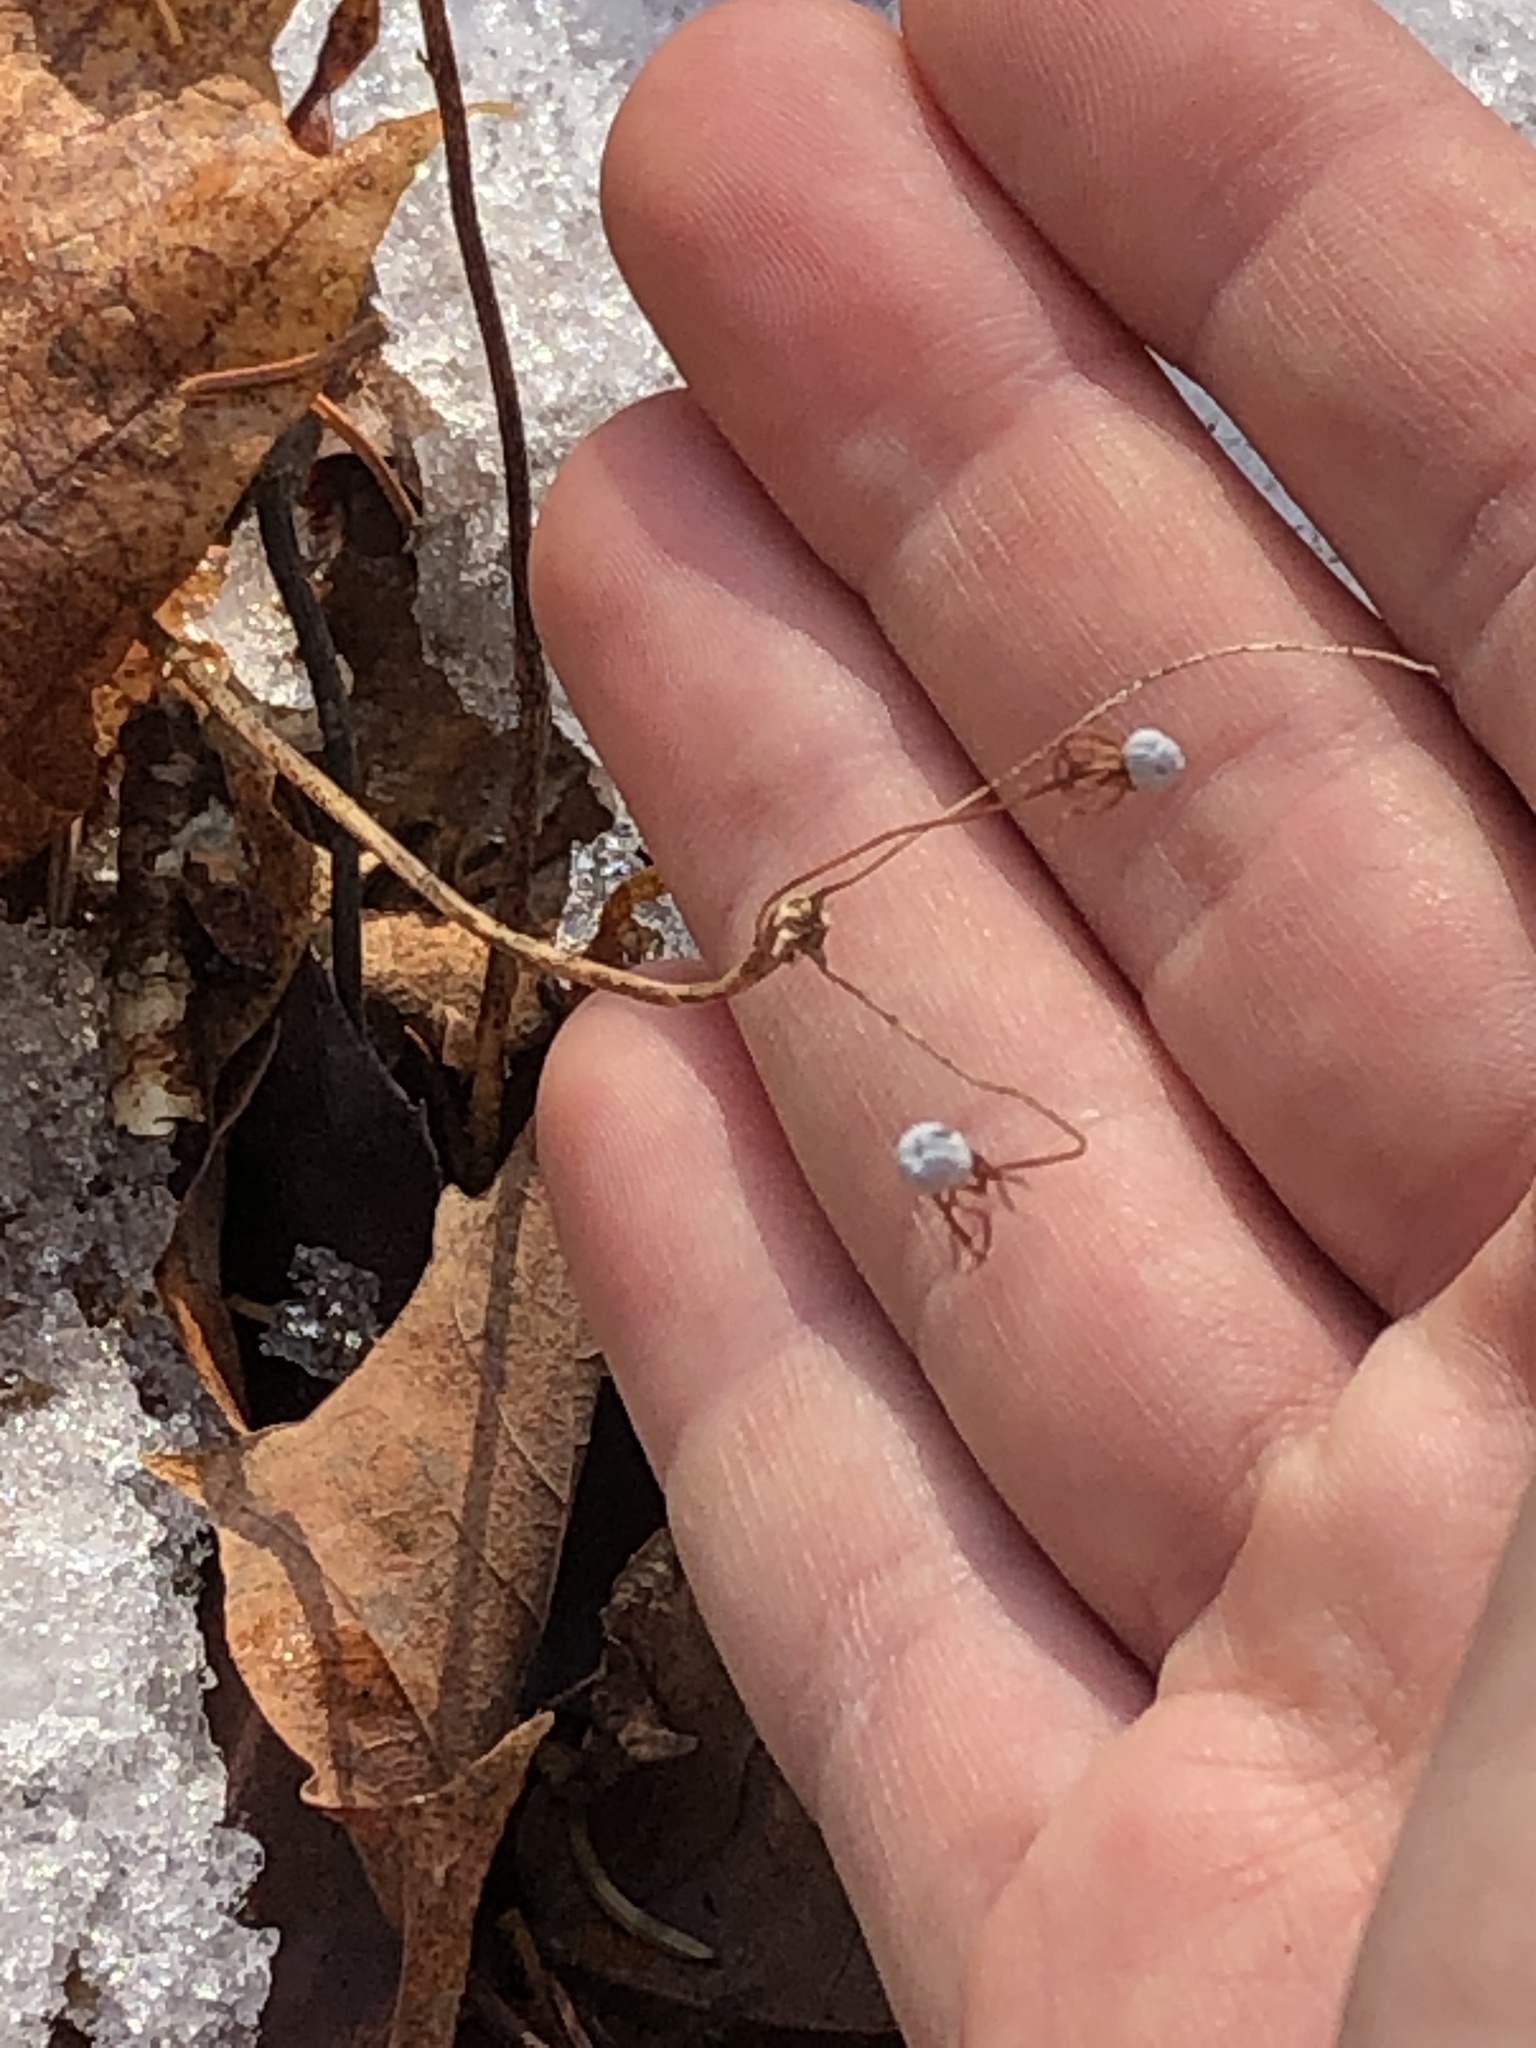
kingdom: Plantae
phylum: Tracheophyta
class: Magnoliopsida
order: Ericales
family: Primulaceae
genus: Lysimachia
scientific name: Lysimachia borealis
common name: American starflower
